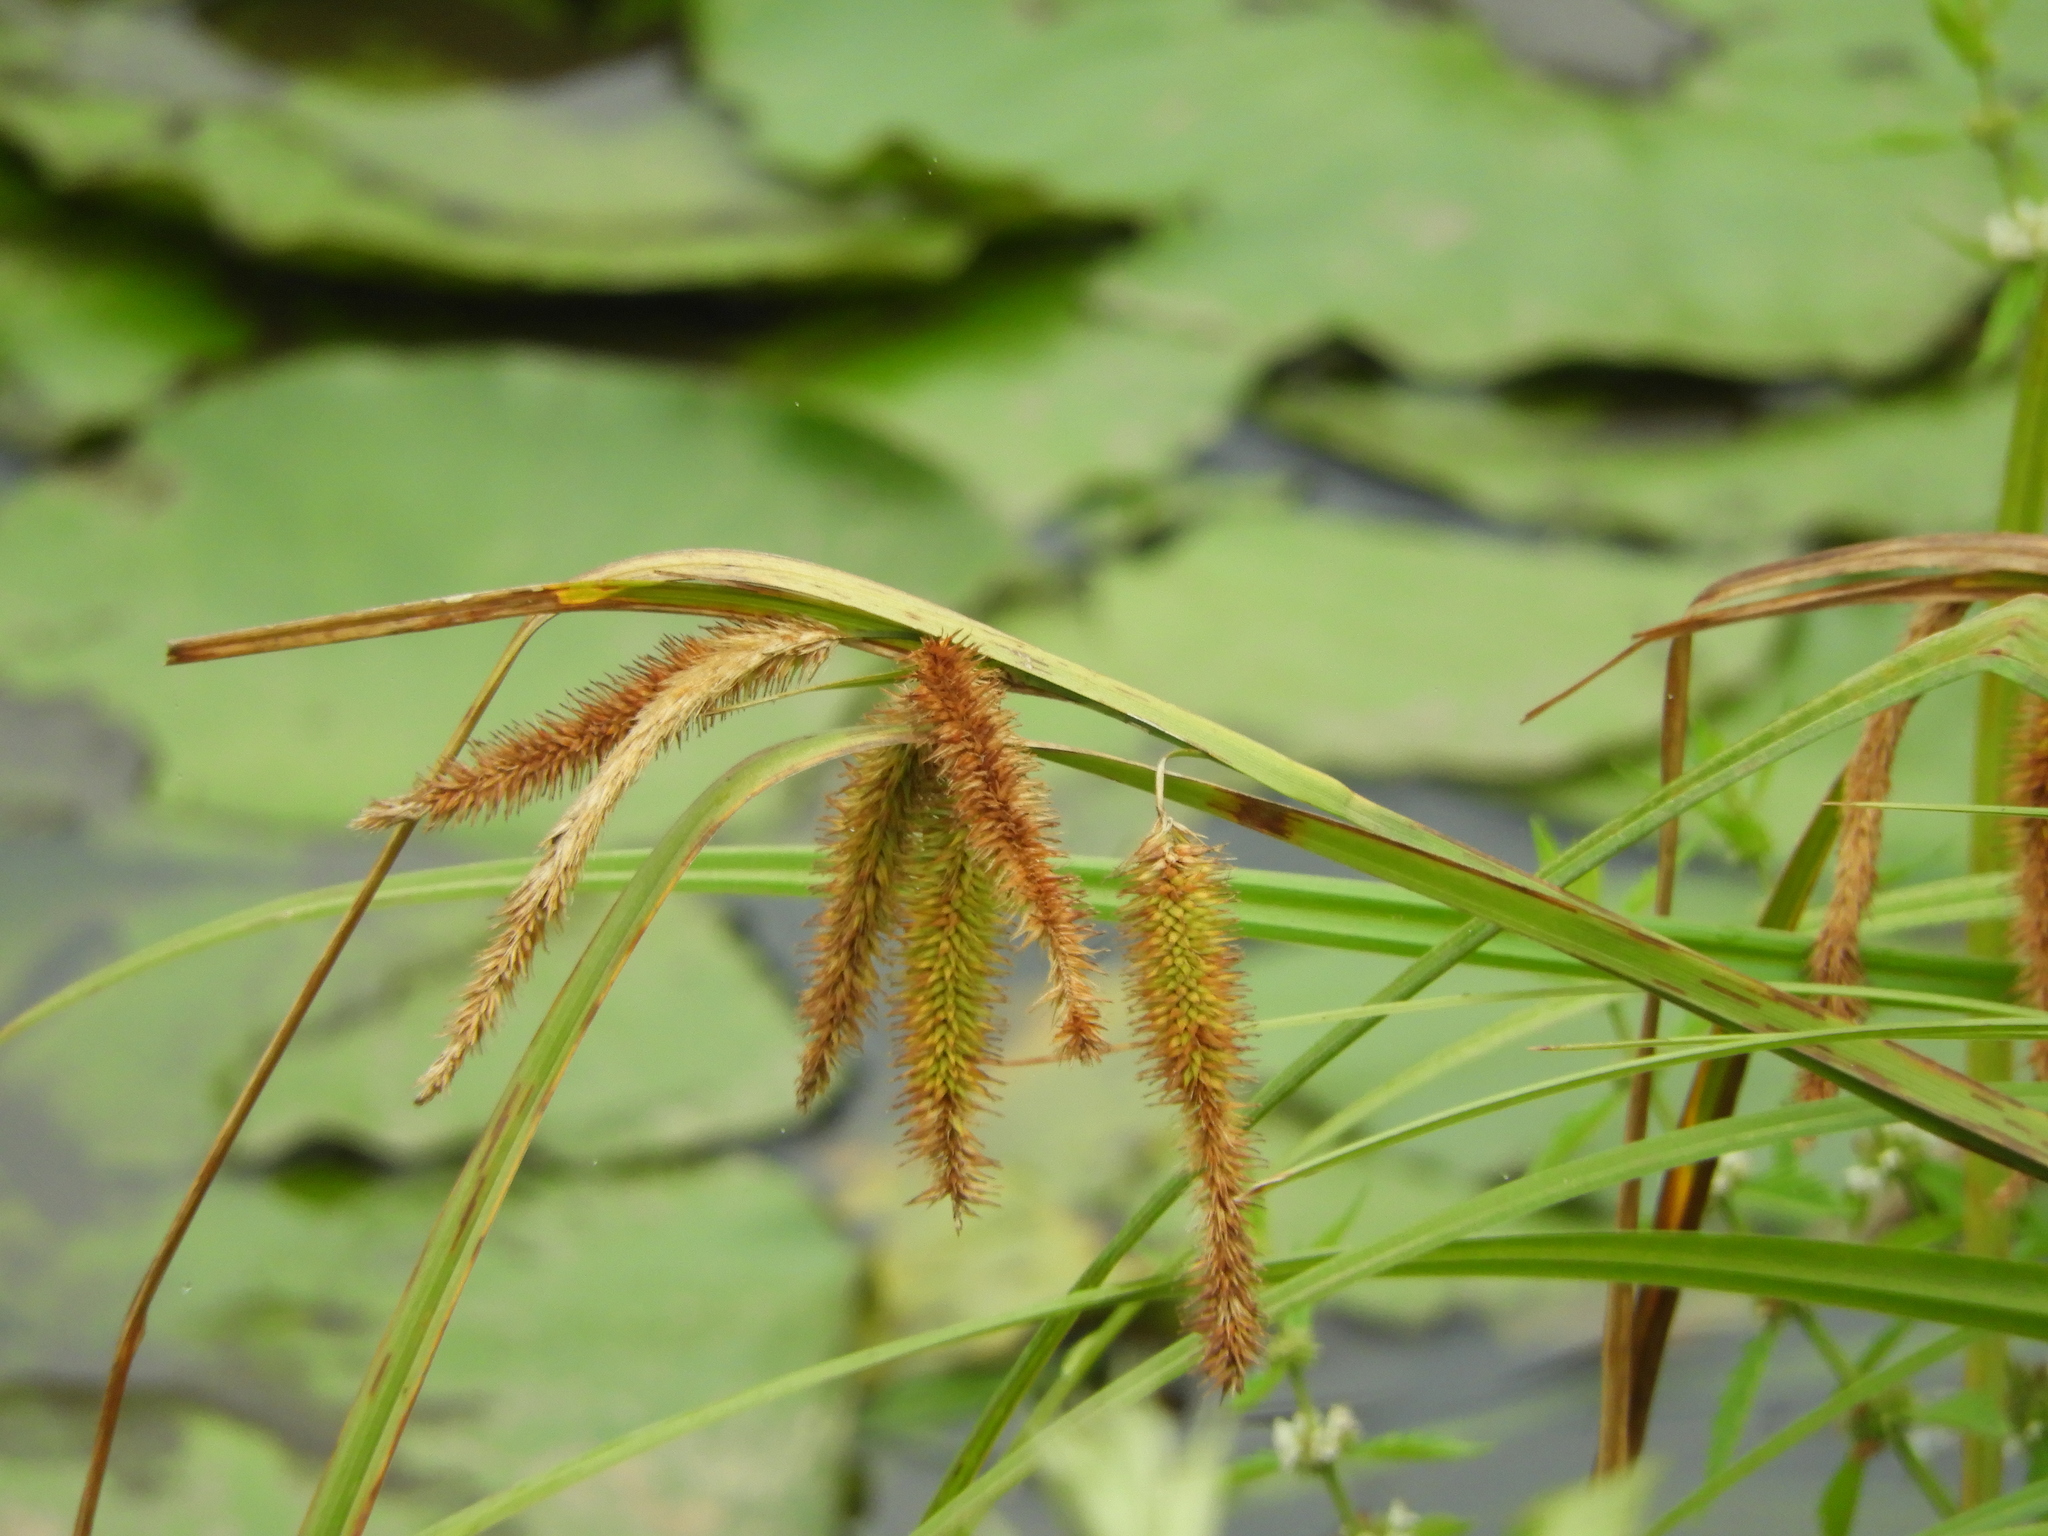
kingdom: Plantae
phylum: Tracheophyta
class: Liliopsida
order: Poales
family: Cyperaceae
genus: Carex
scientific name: Carex excelsa
